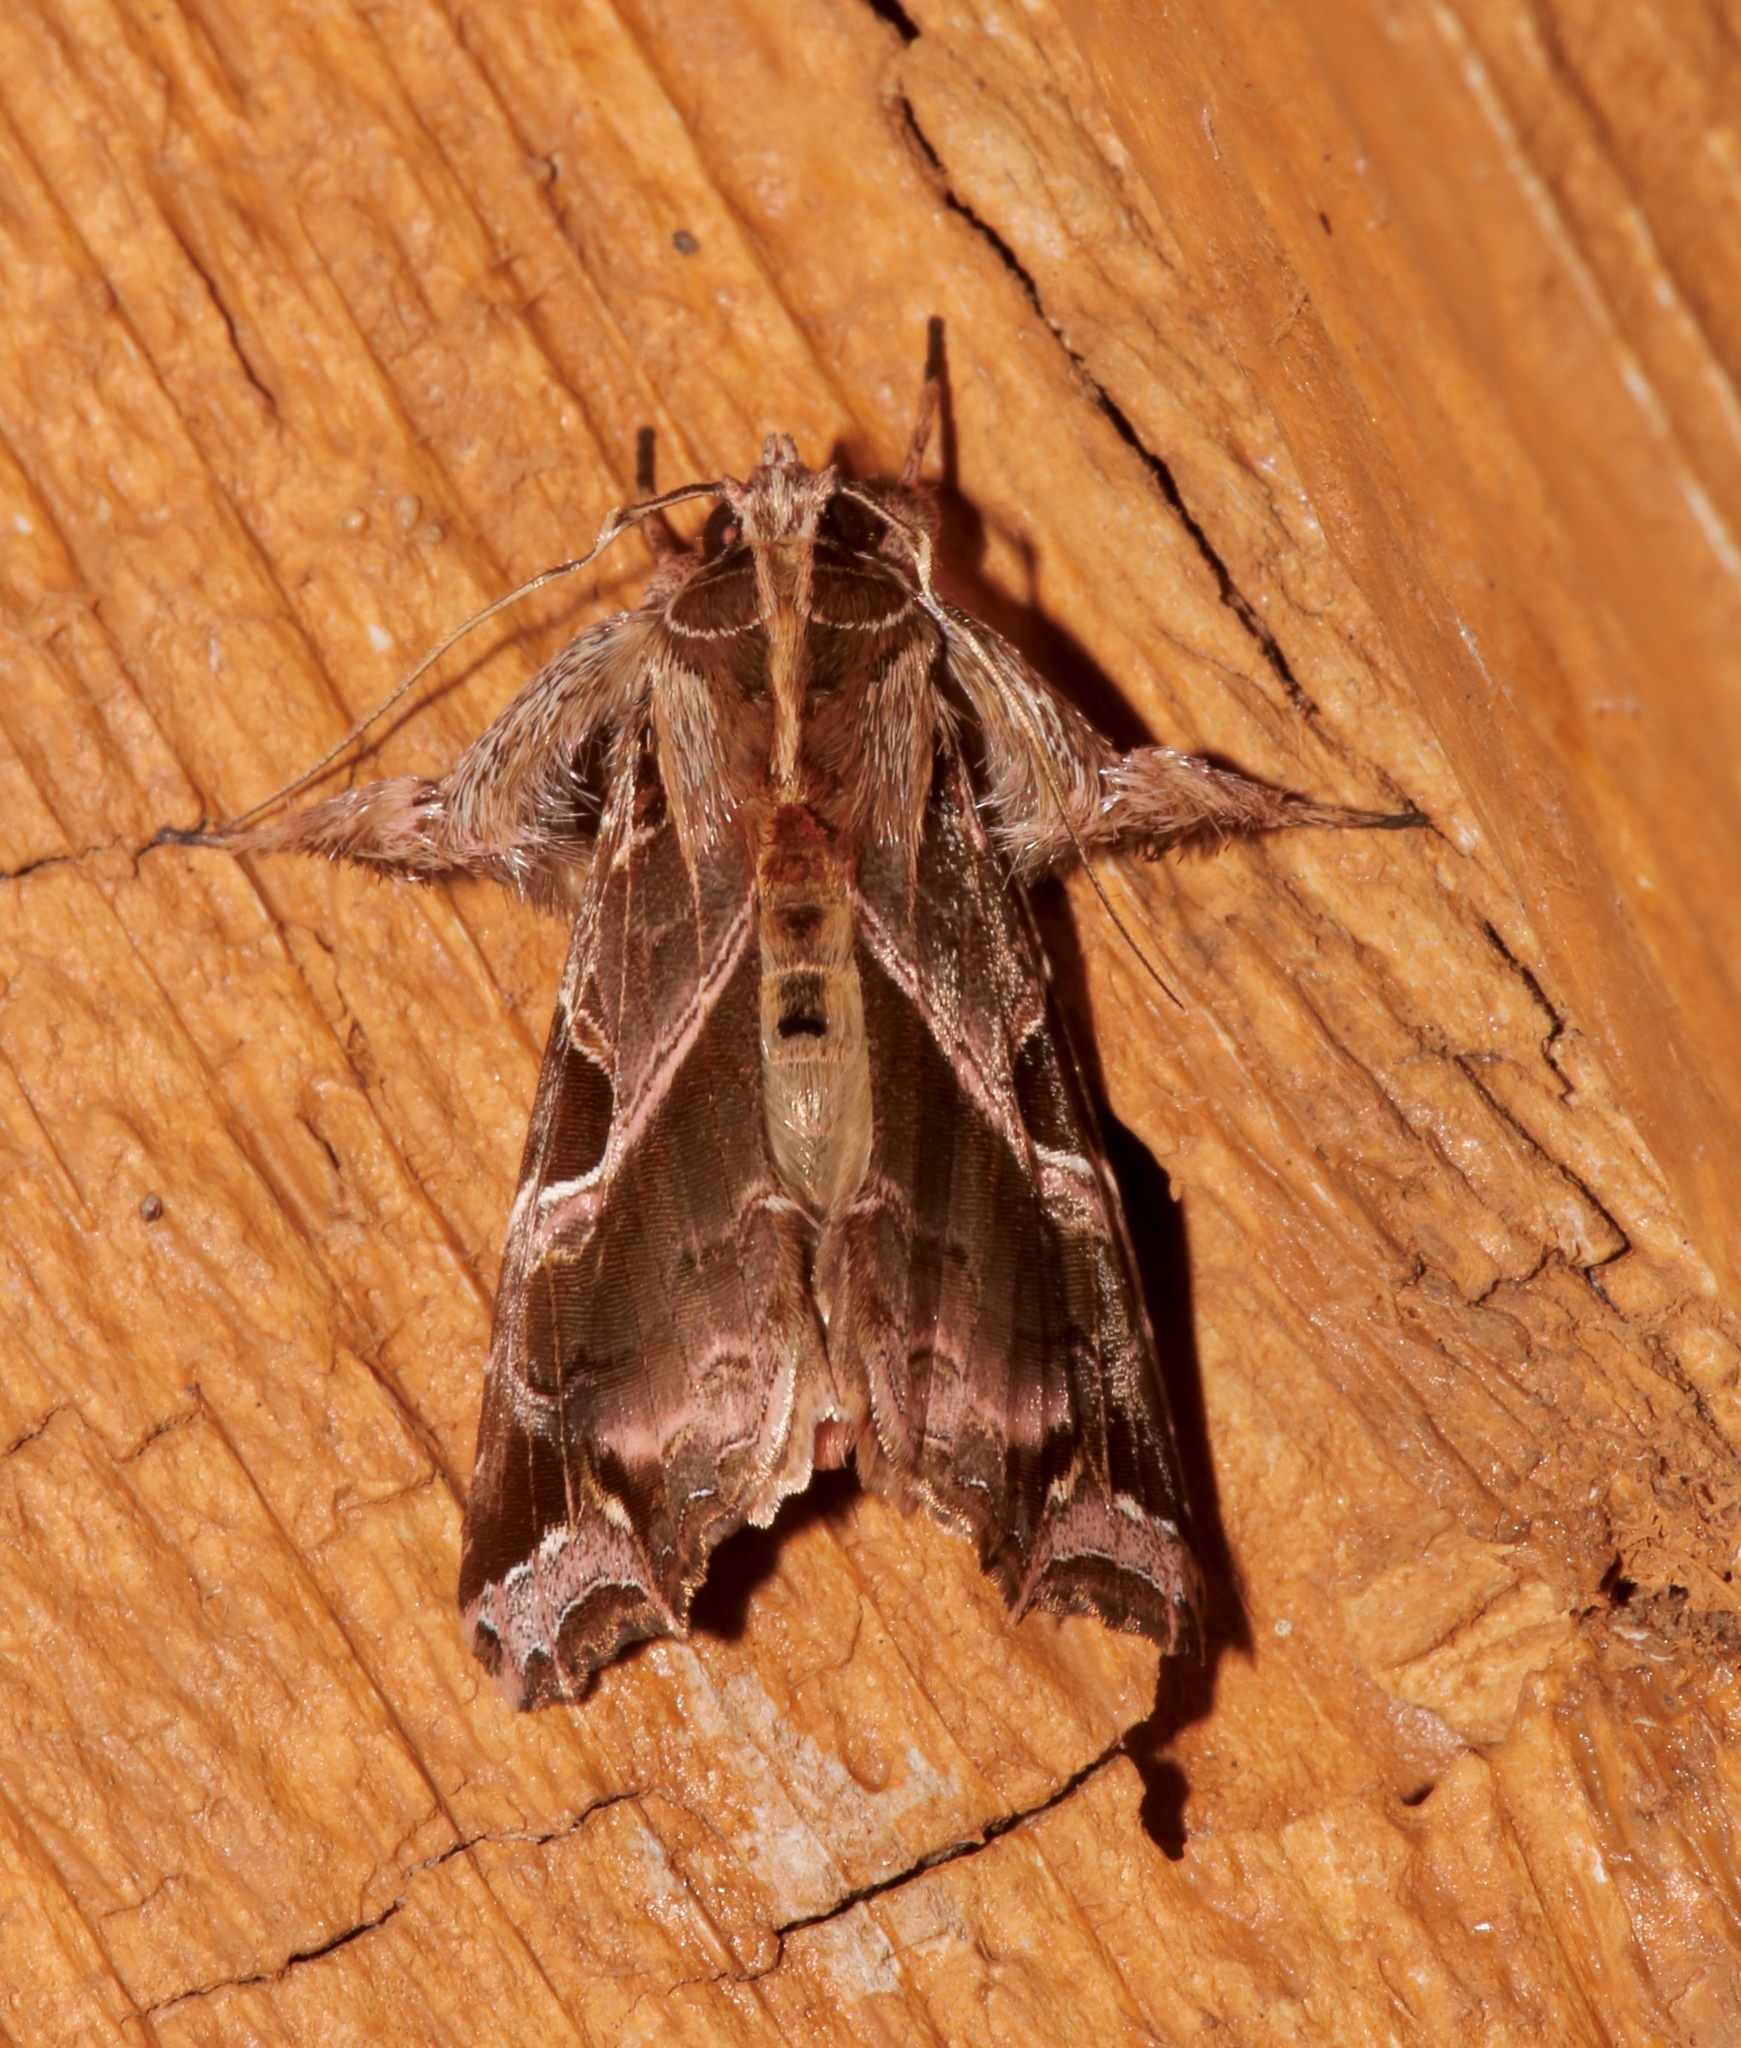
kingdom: Animalia
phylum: Arthropoda
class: Insecta
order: Lepidoptera
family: Noctuidae
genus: Callopistria
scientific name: Callopistria floridensis
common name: Florida fern moth
